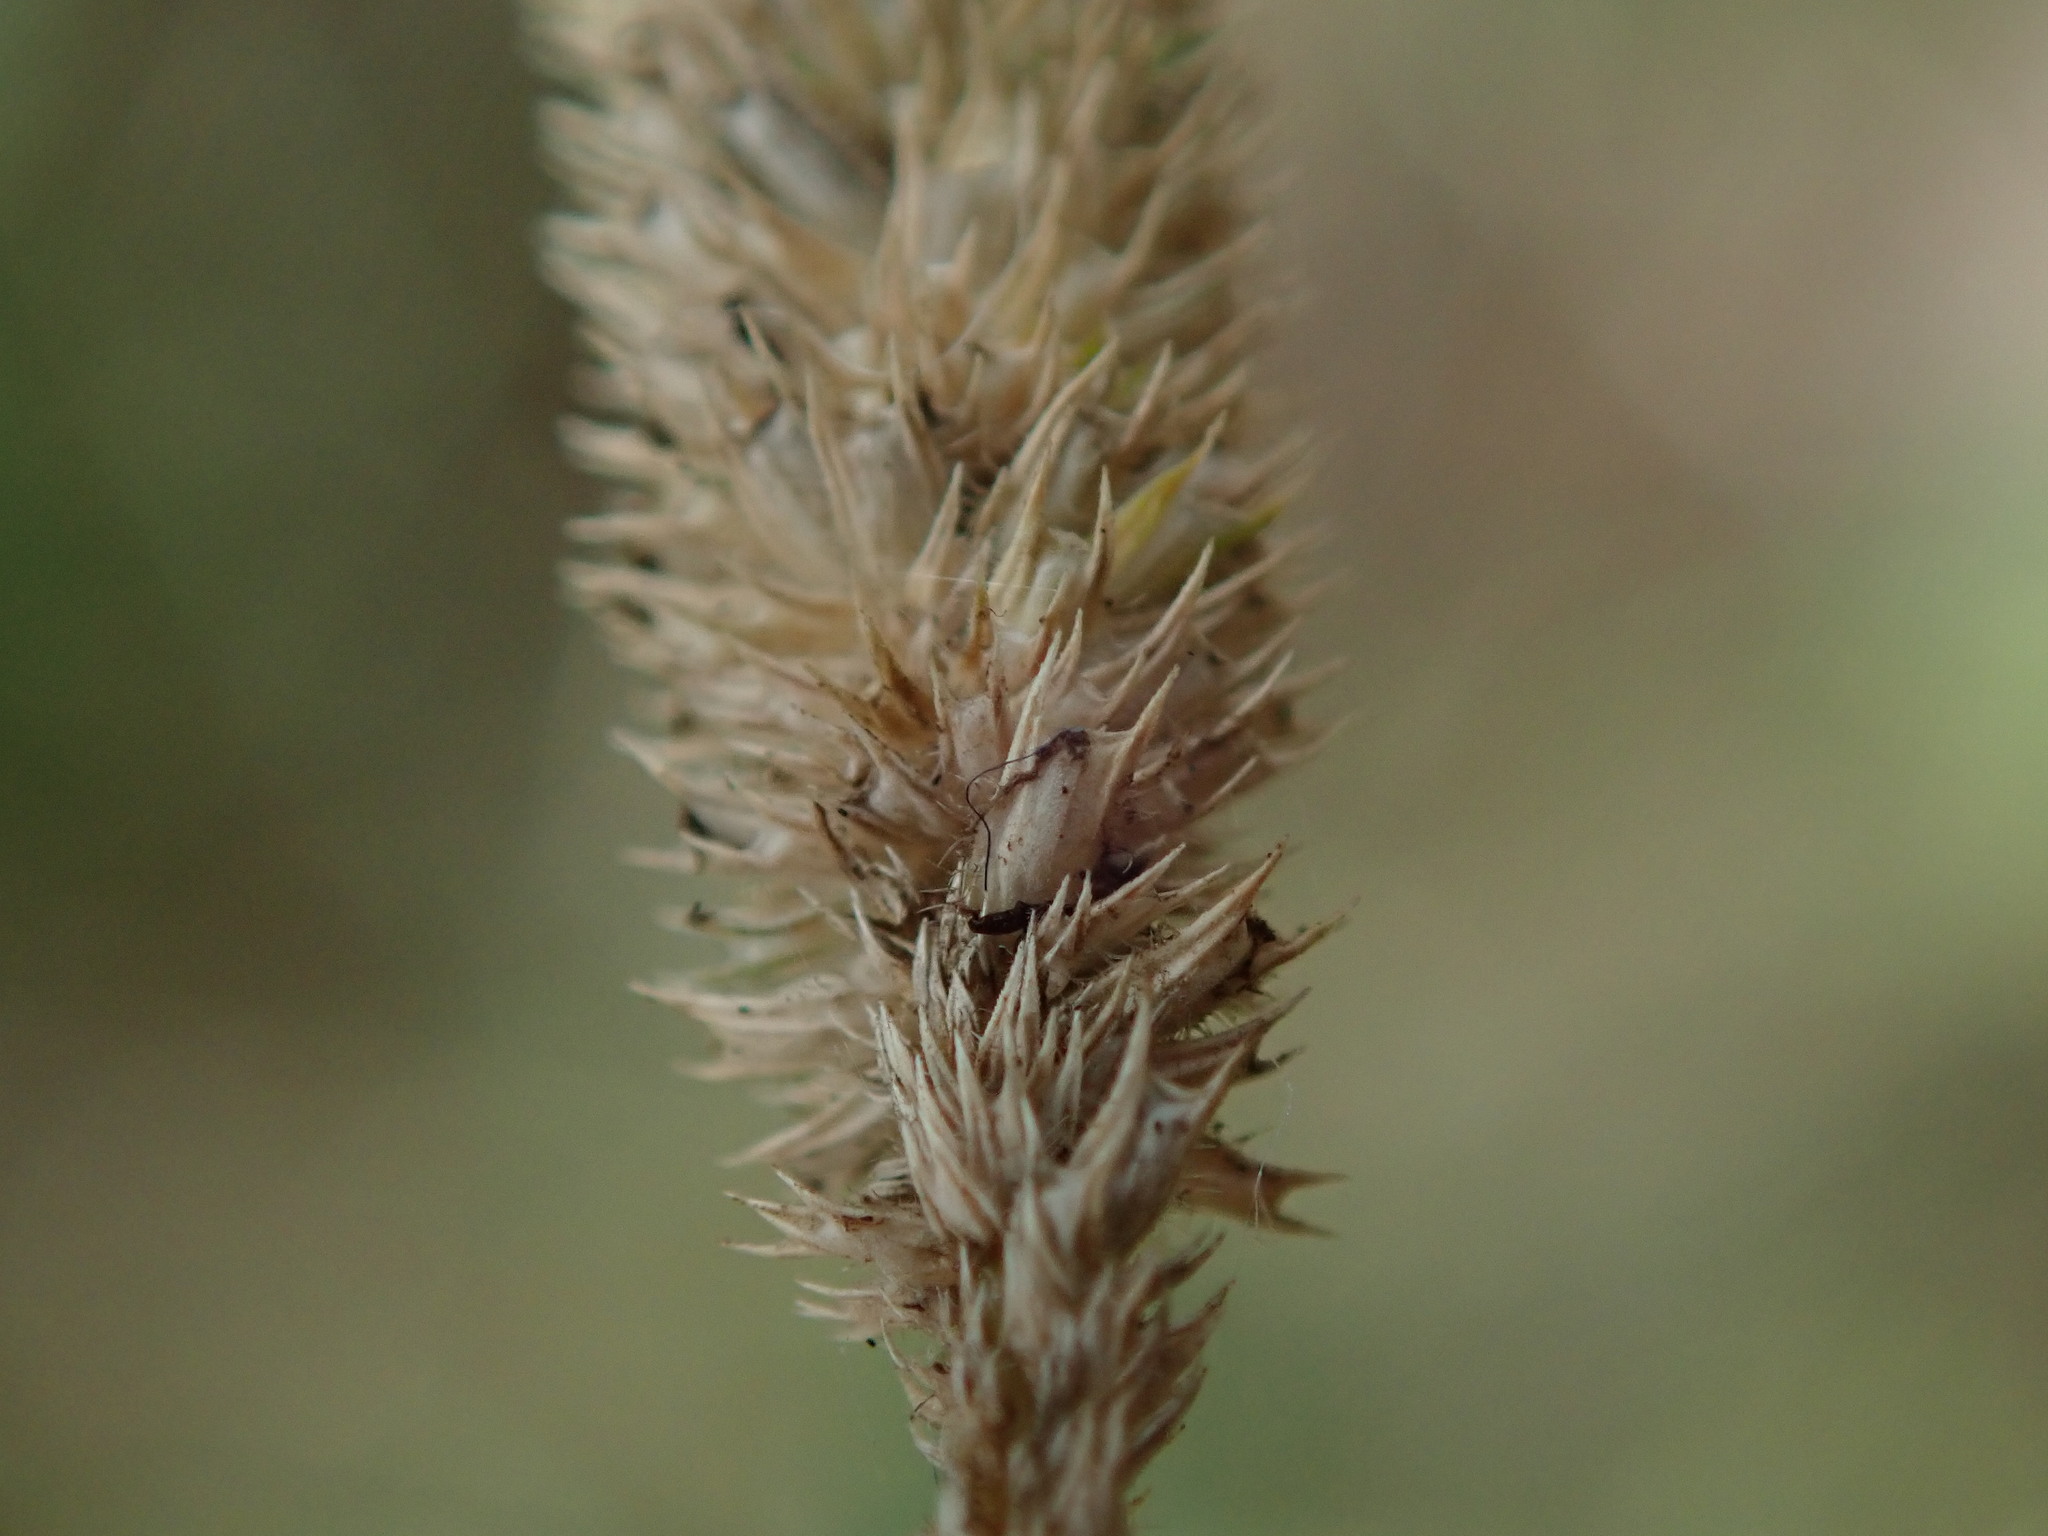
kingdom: Plantae
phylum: Tracheophyta
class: Liliopsida
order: Poales
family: Poaceae
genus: Phleum
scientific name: Phleum bertolonii
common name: Smaller cat's-tail
